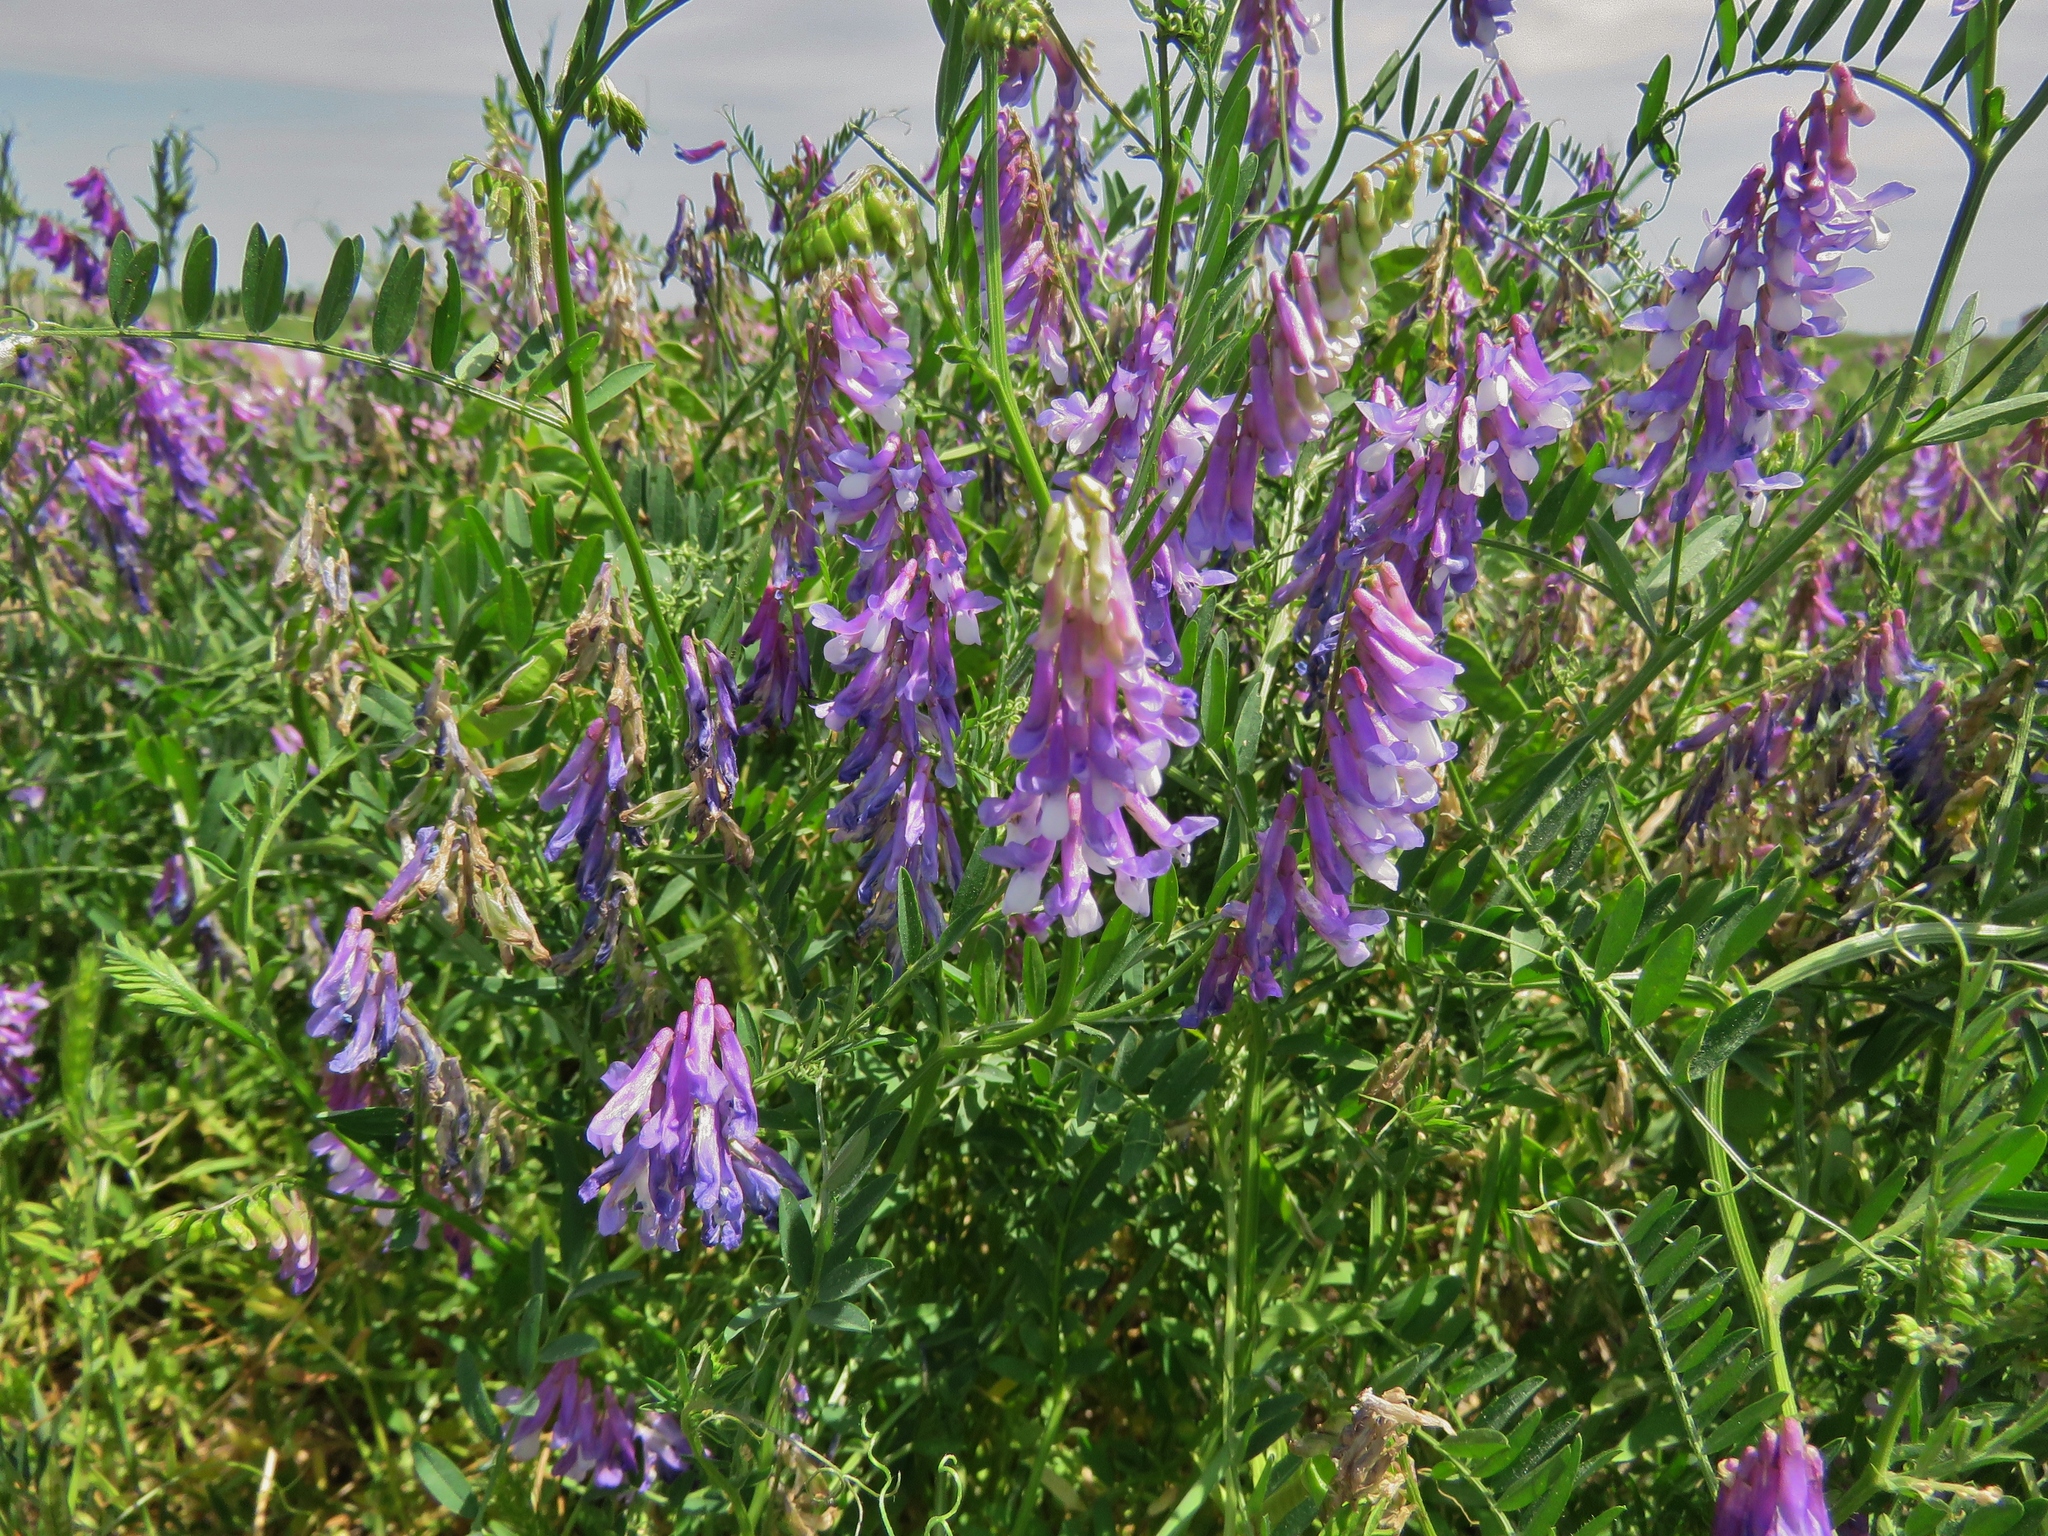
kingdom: Plantae
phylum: Tracheophyta
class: Magnoliopsida
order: Fabales
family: Fabaceae
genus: Vicia
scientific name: Vicia villosa
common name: Fodder vetch
